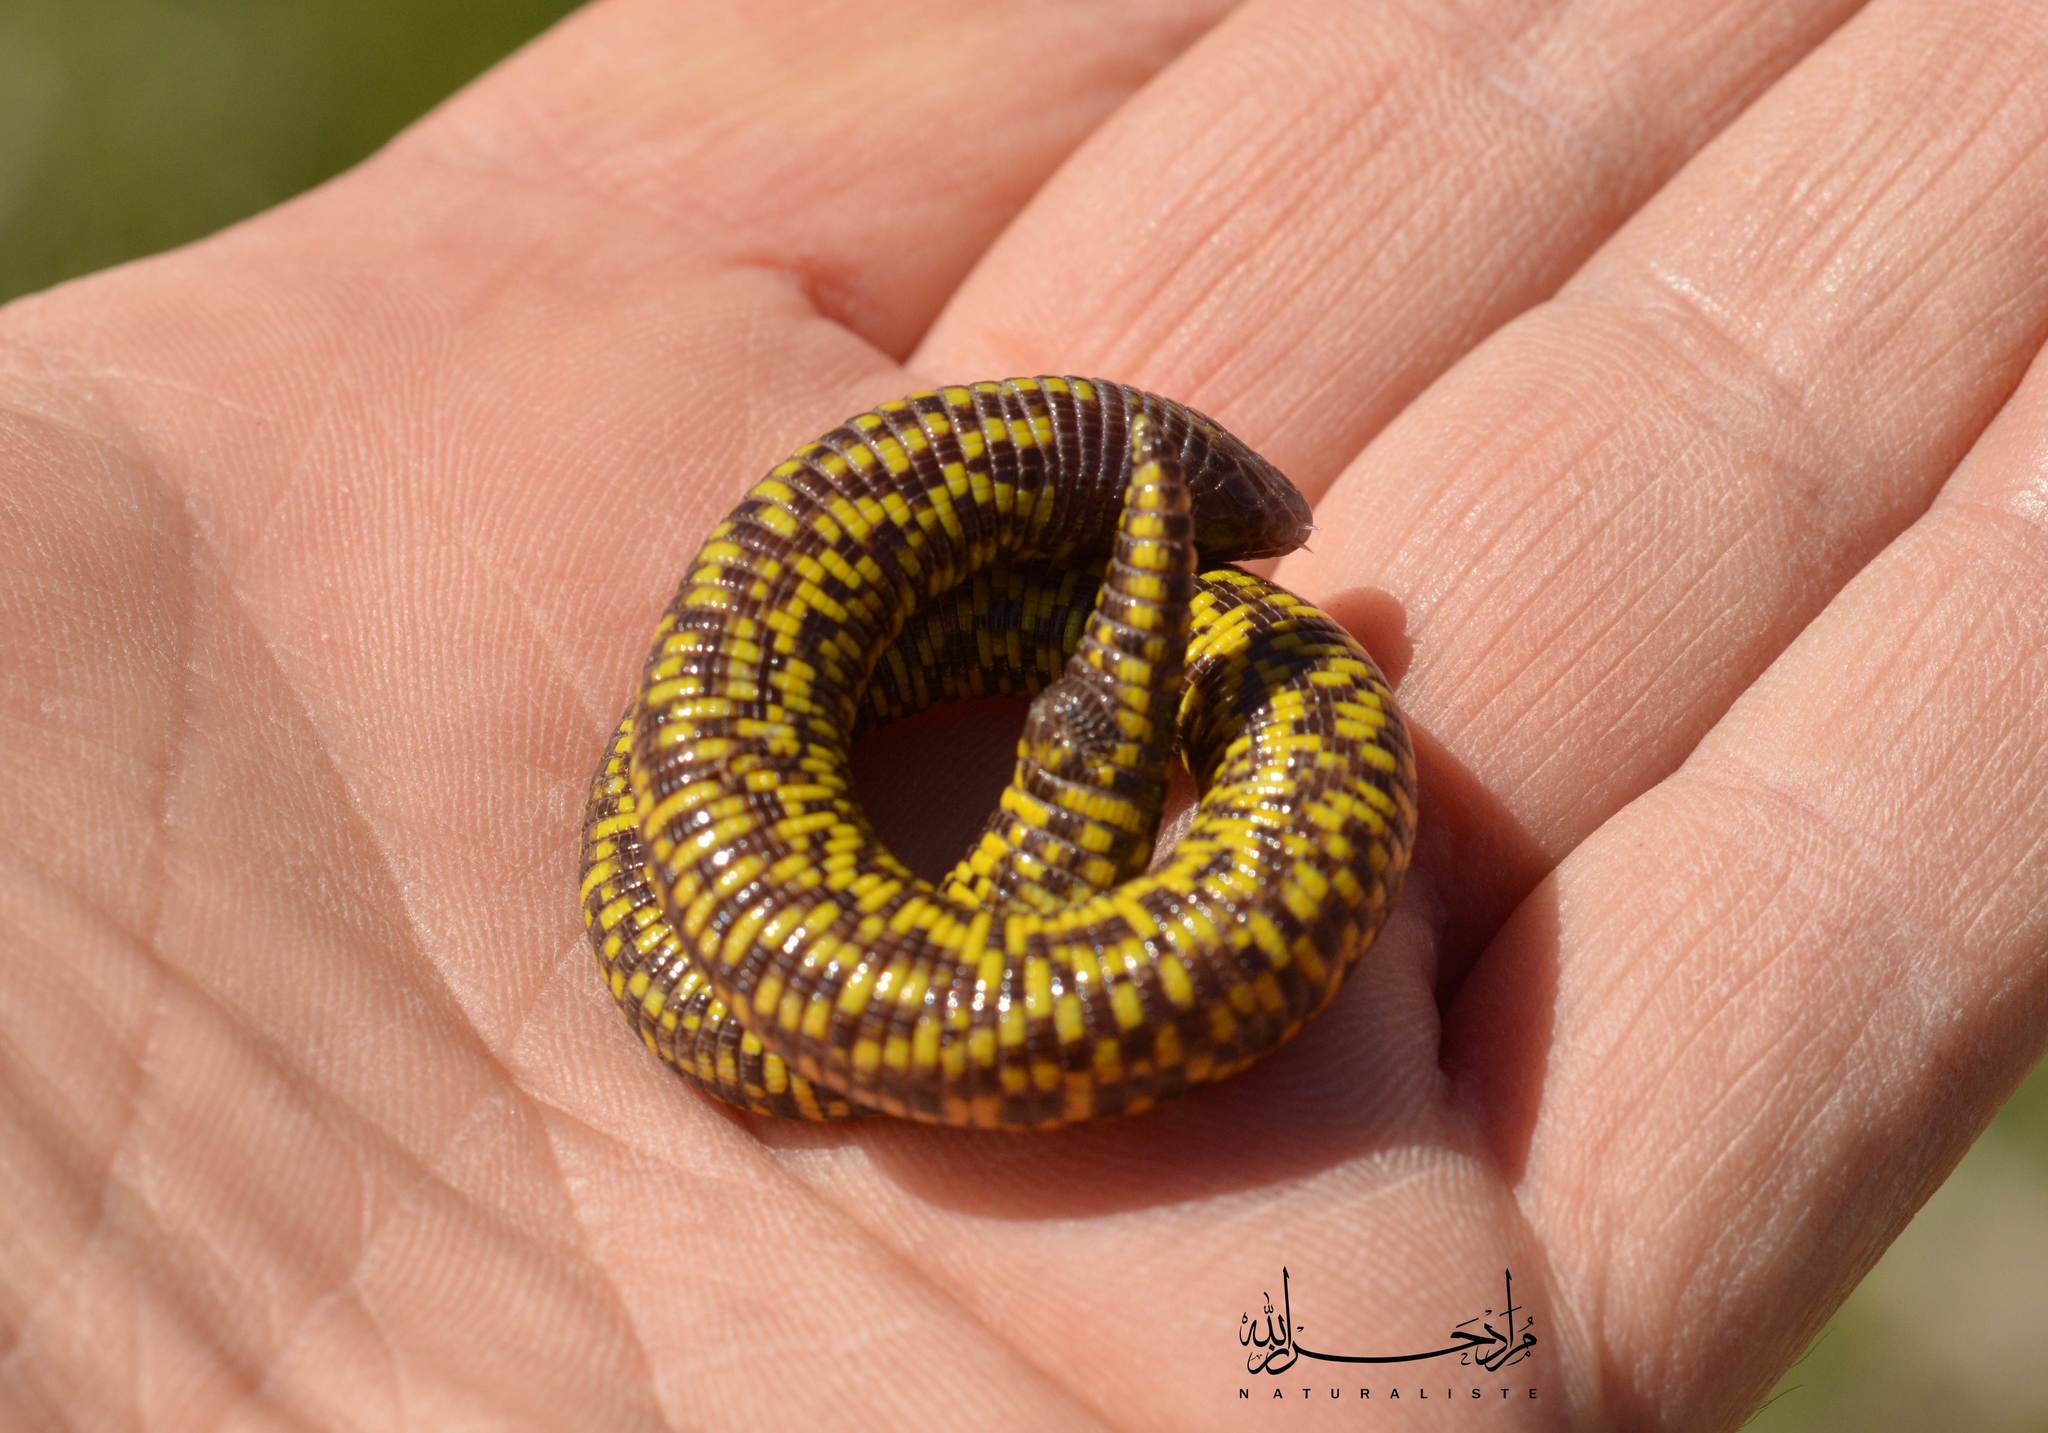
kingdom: Animalia
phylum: Chordata
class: Squamata
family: Trogonophidae
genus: Trogonophis
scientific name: Trogonophis wiegmanni
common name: Checkerboard worm lizard
